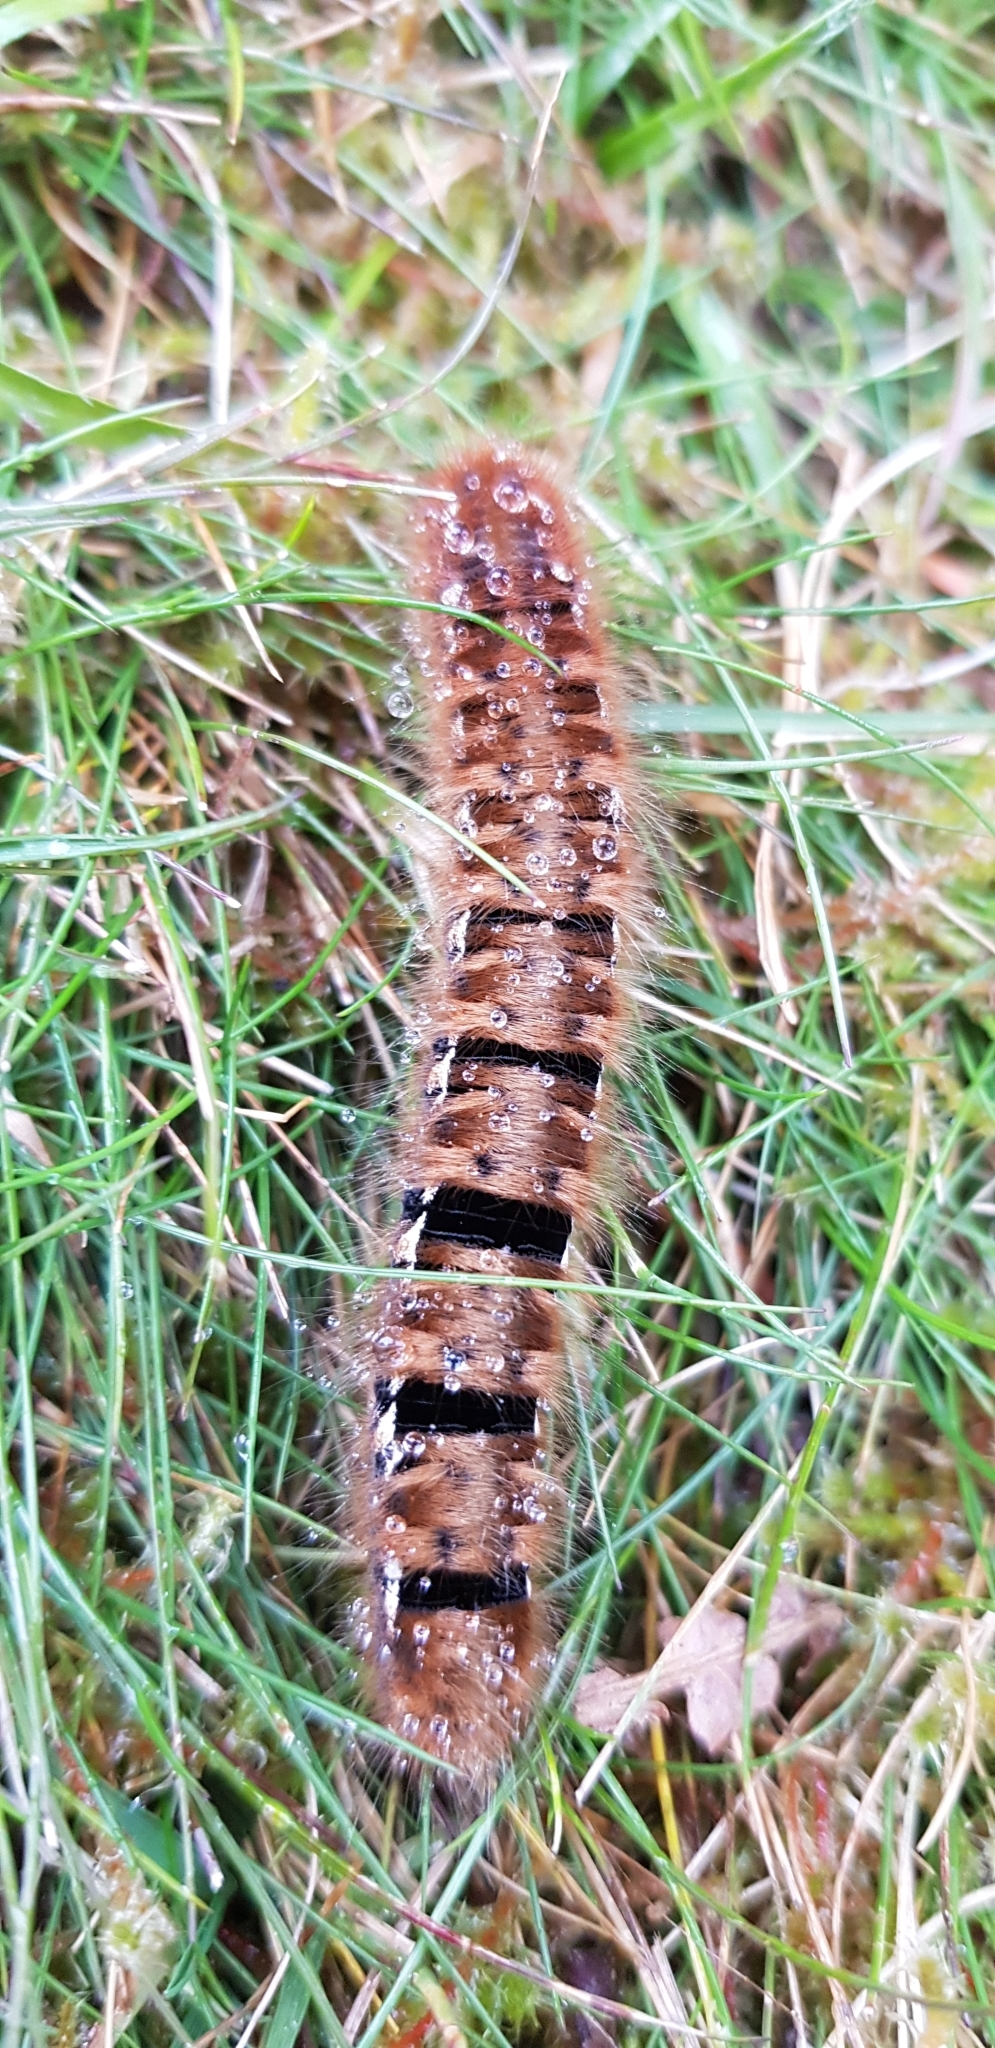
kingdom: Animalia
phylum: Arthropoda
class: Insecta
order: Lepidoptera
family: Lasiocampidae
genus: Lasiocampa
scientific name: Lasiocampa quercus
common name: Oak eggar
